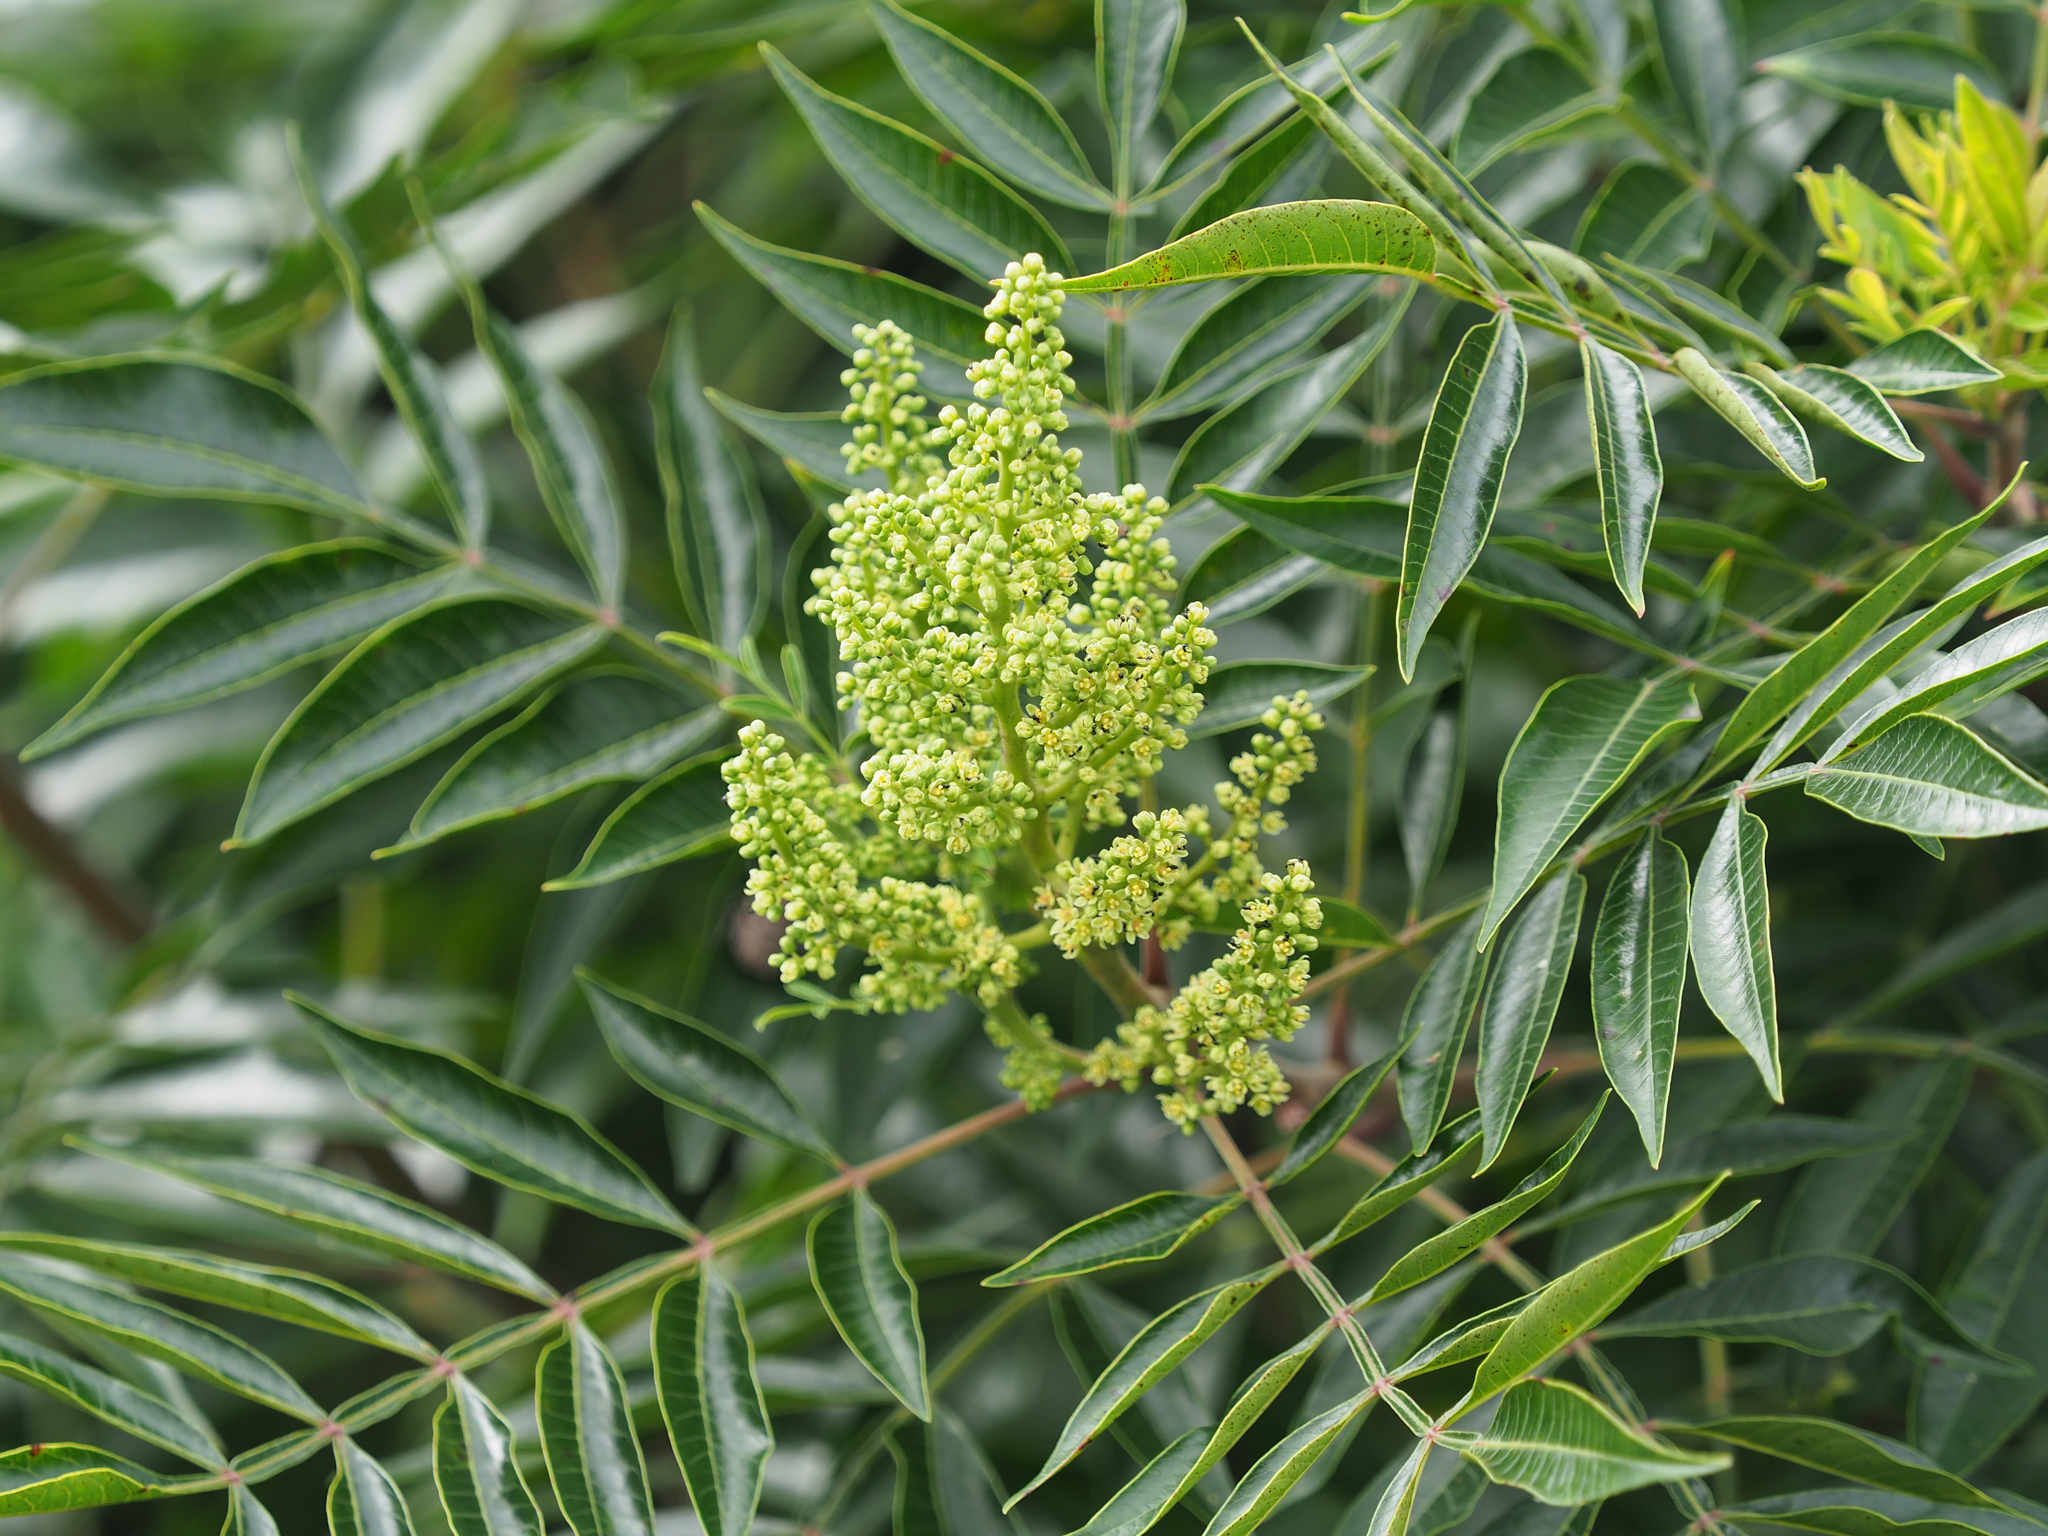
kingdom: Plantae
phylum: Tracheophyta
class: Magnoliopsida
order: Sapindales
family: Anacardiaceae
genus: Rhus
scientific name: Rhus copallina
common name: Shining sumac
